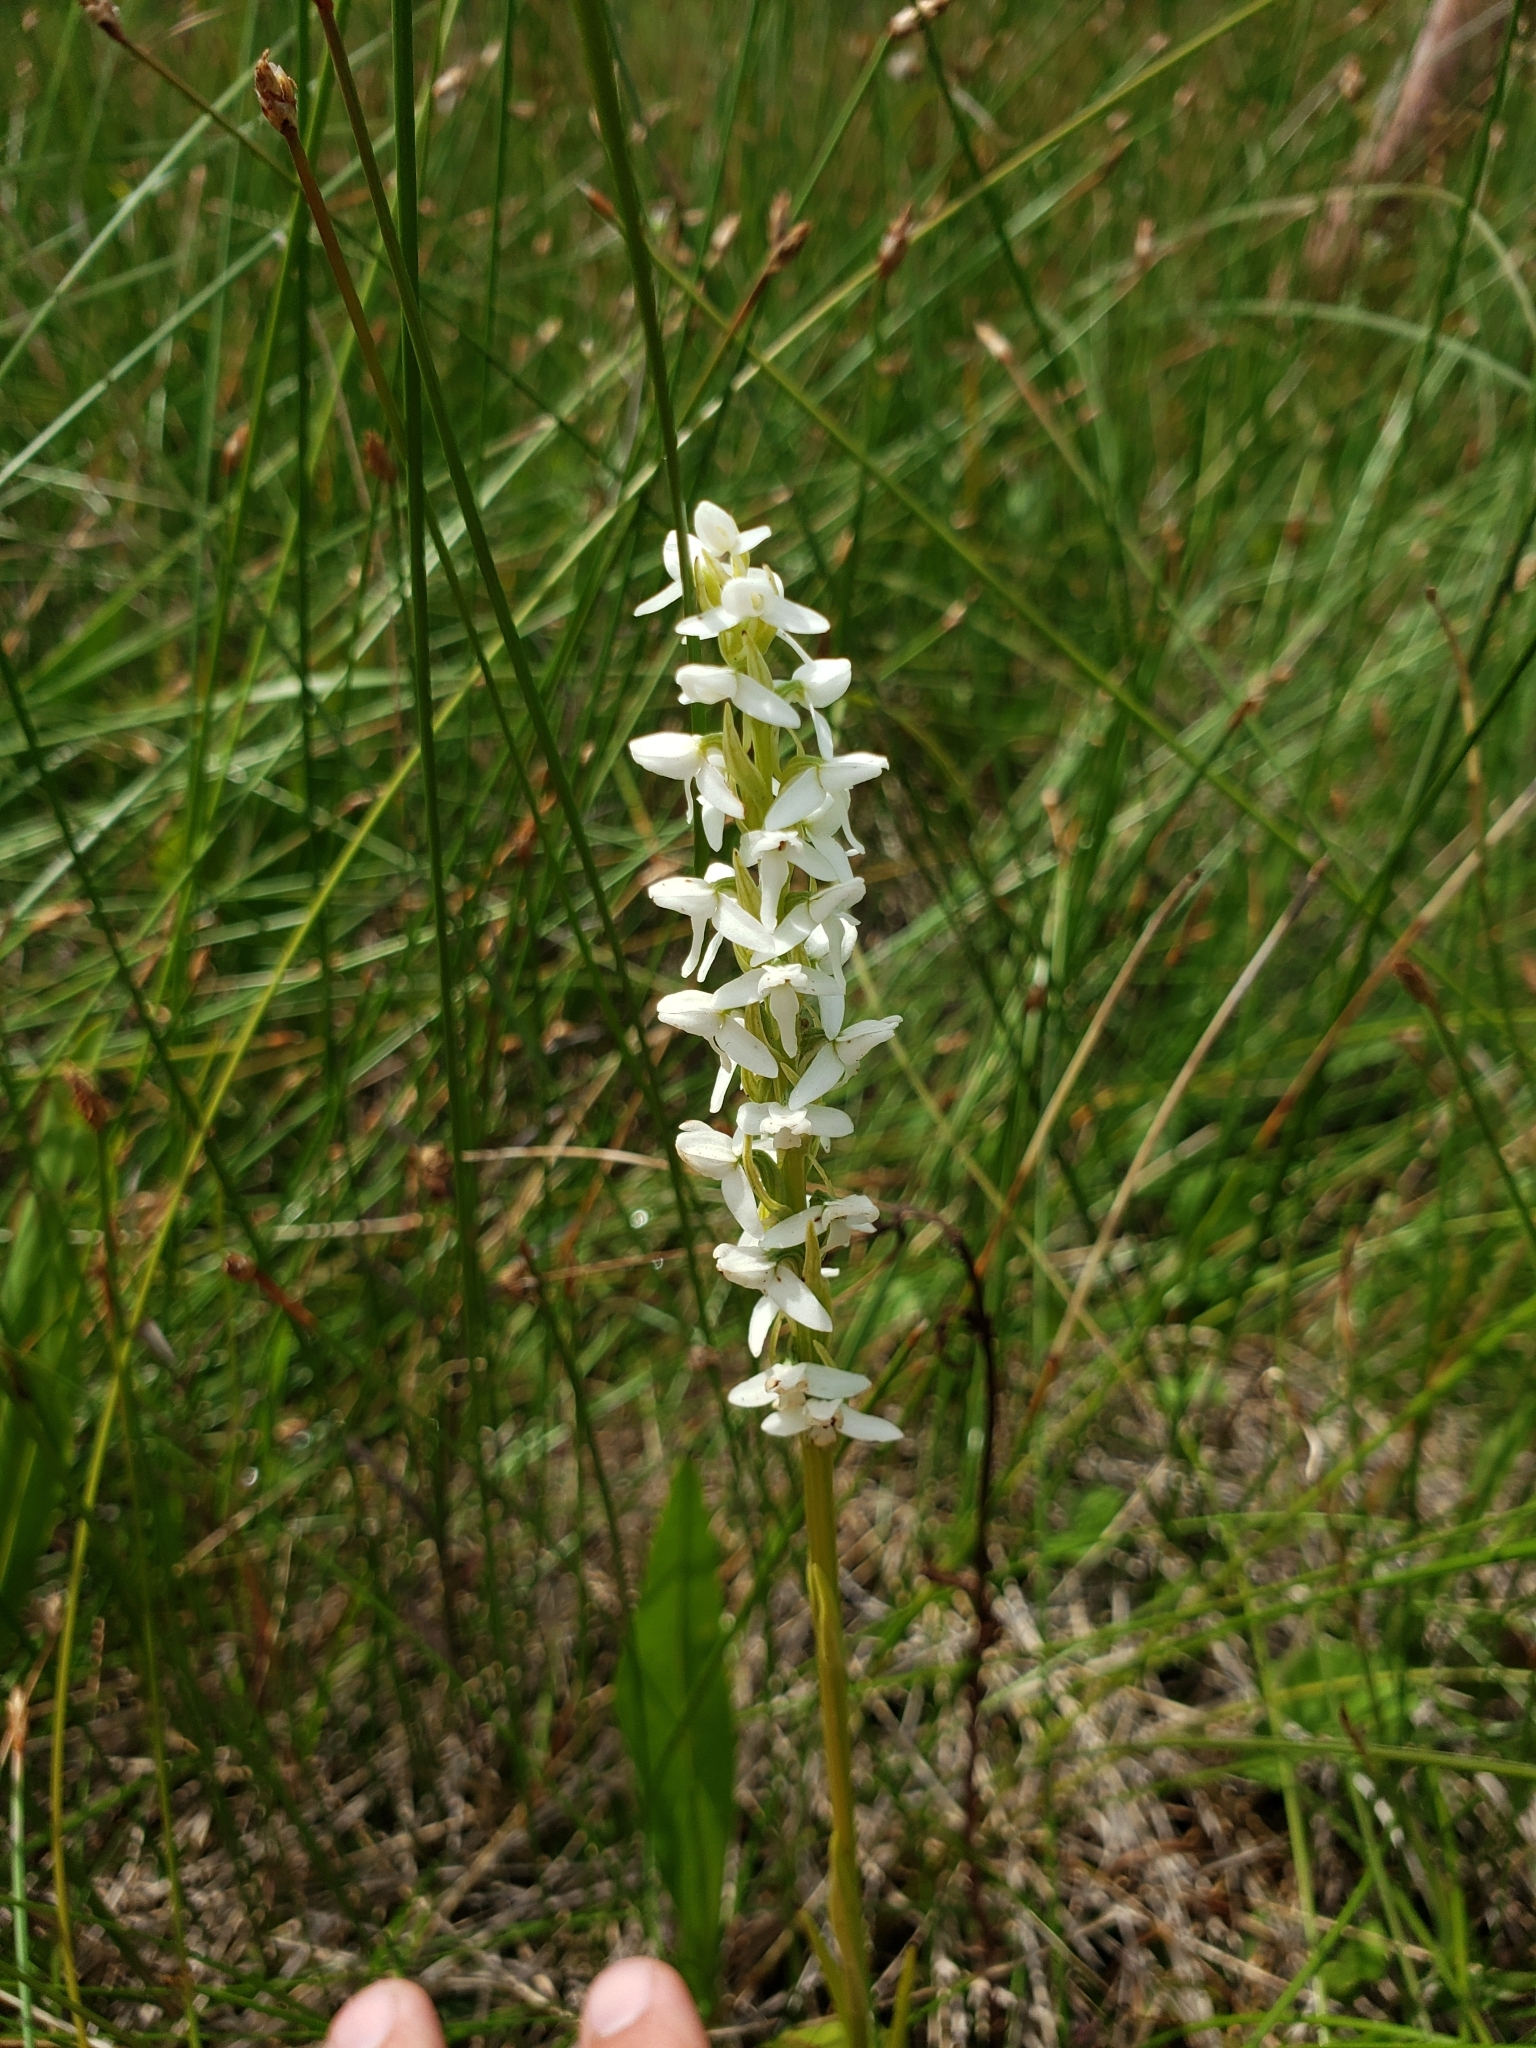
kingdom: Plantae
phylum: Tracheophyta
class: Liliopsida
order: Asparagales
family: Orchidaceae
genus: Platanthera
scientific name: Platanthera dilatata
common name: Bog candles
